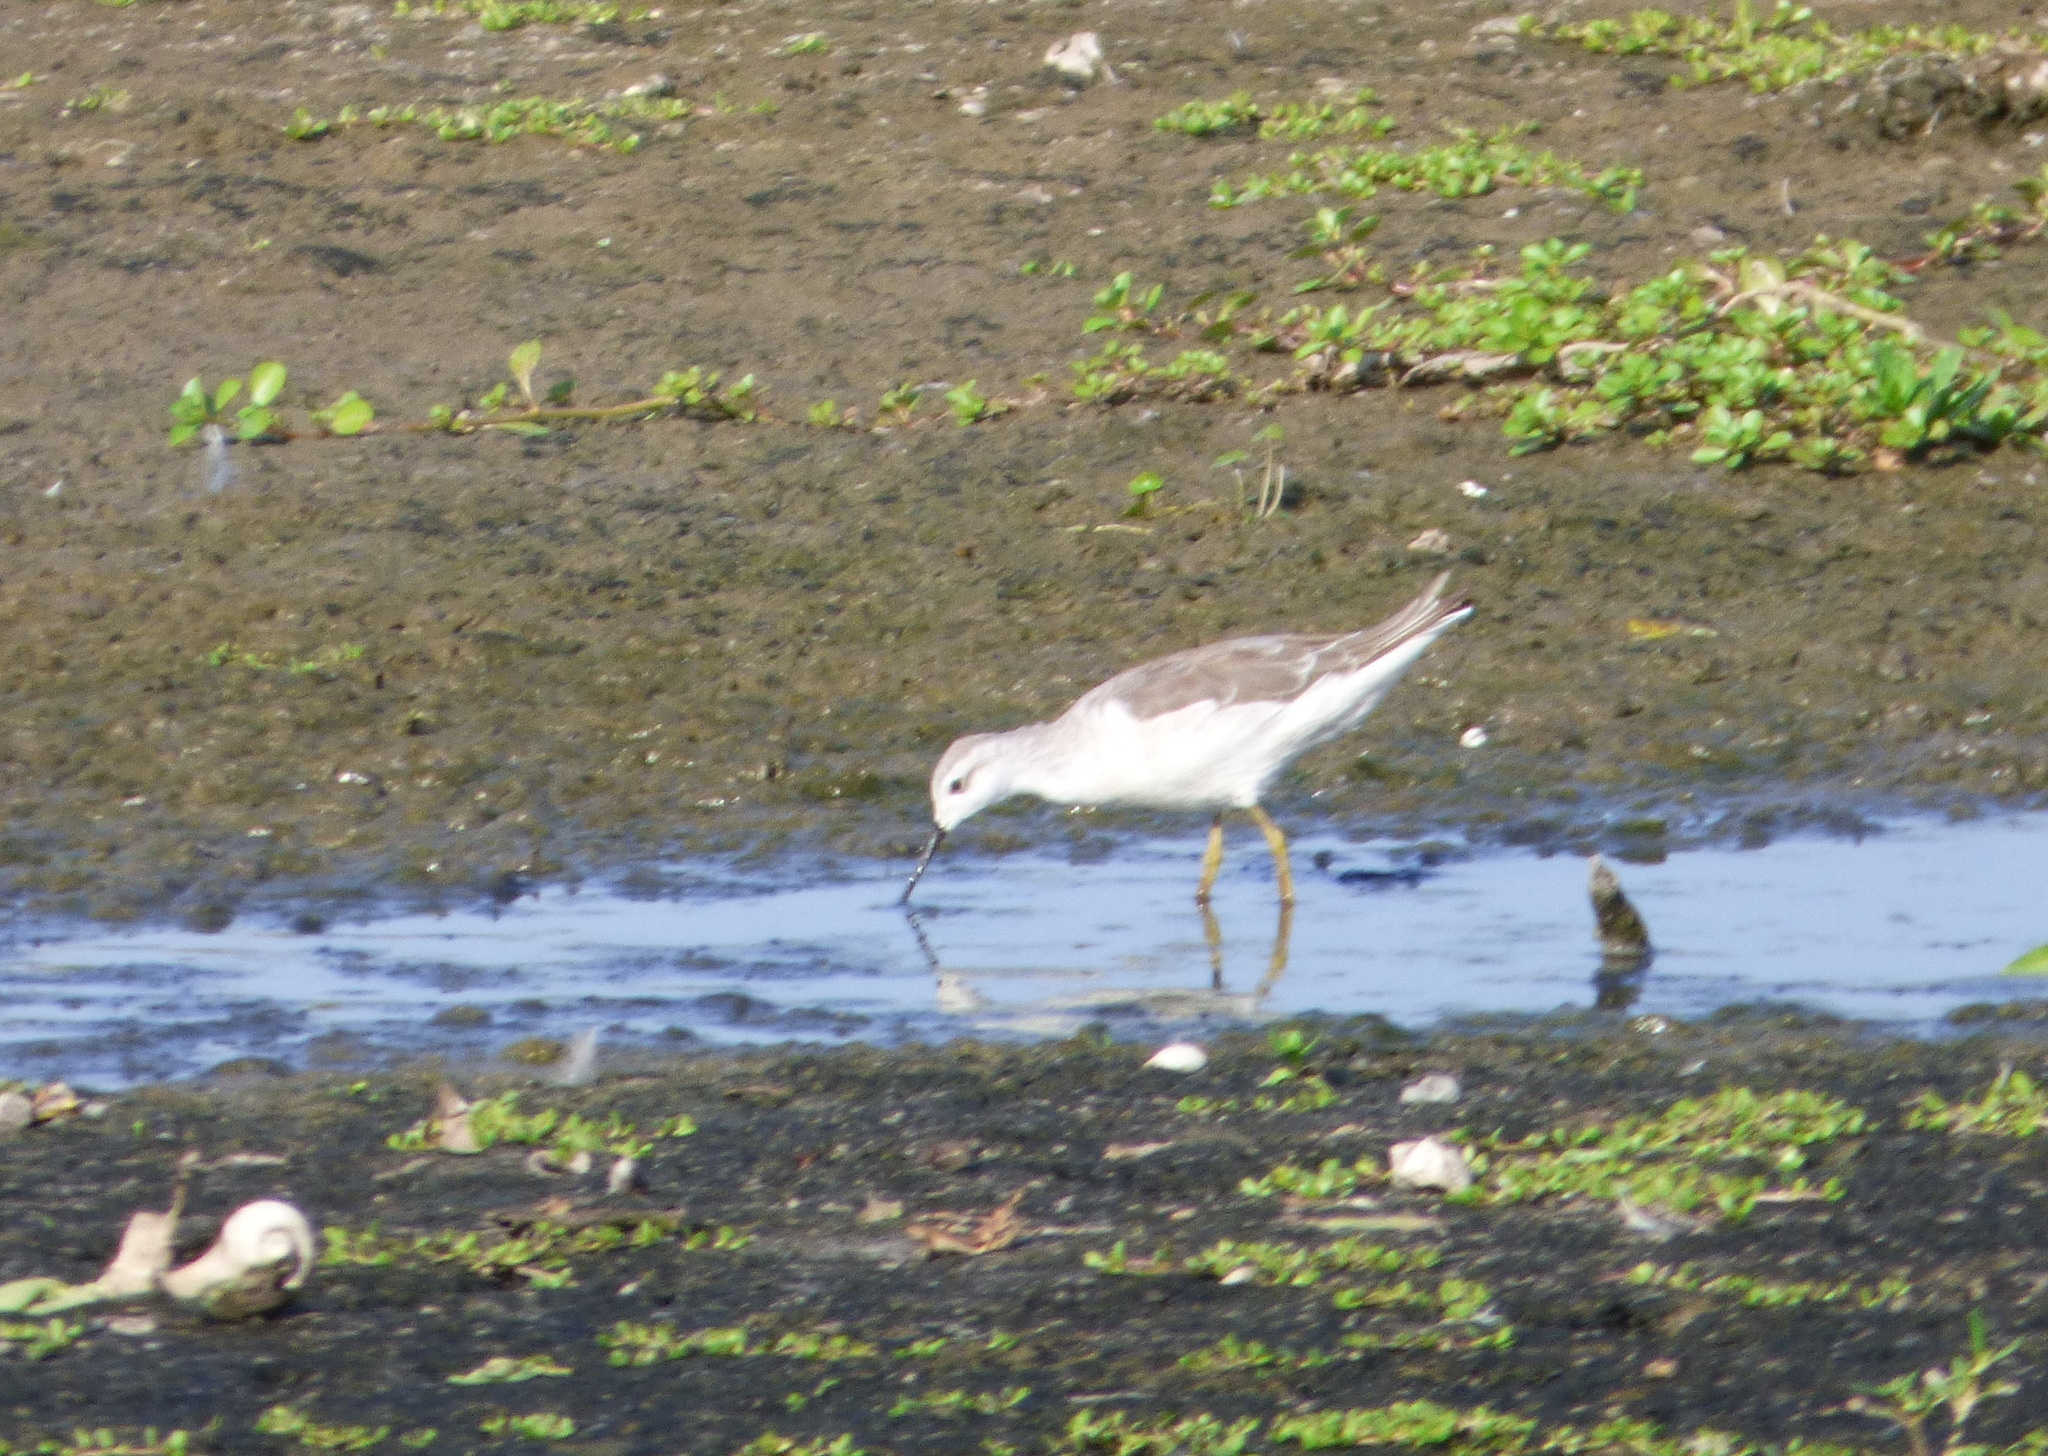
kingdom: Animalia
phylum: Chordata
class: Aves
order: Charadriiformes
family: Scolopacidae
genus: Phalaropus
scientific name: Phalaropus tricolor
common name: Wilson's phalarope
